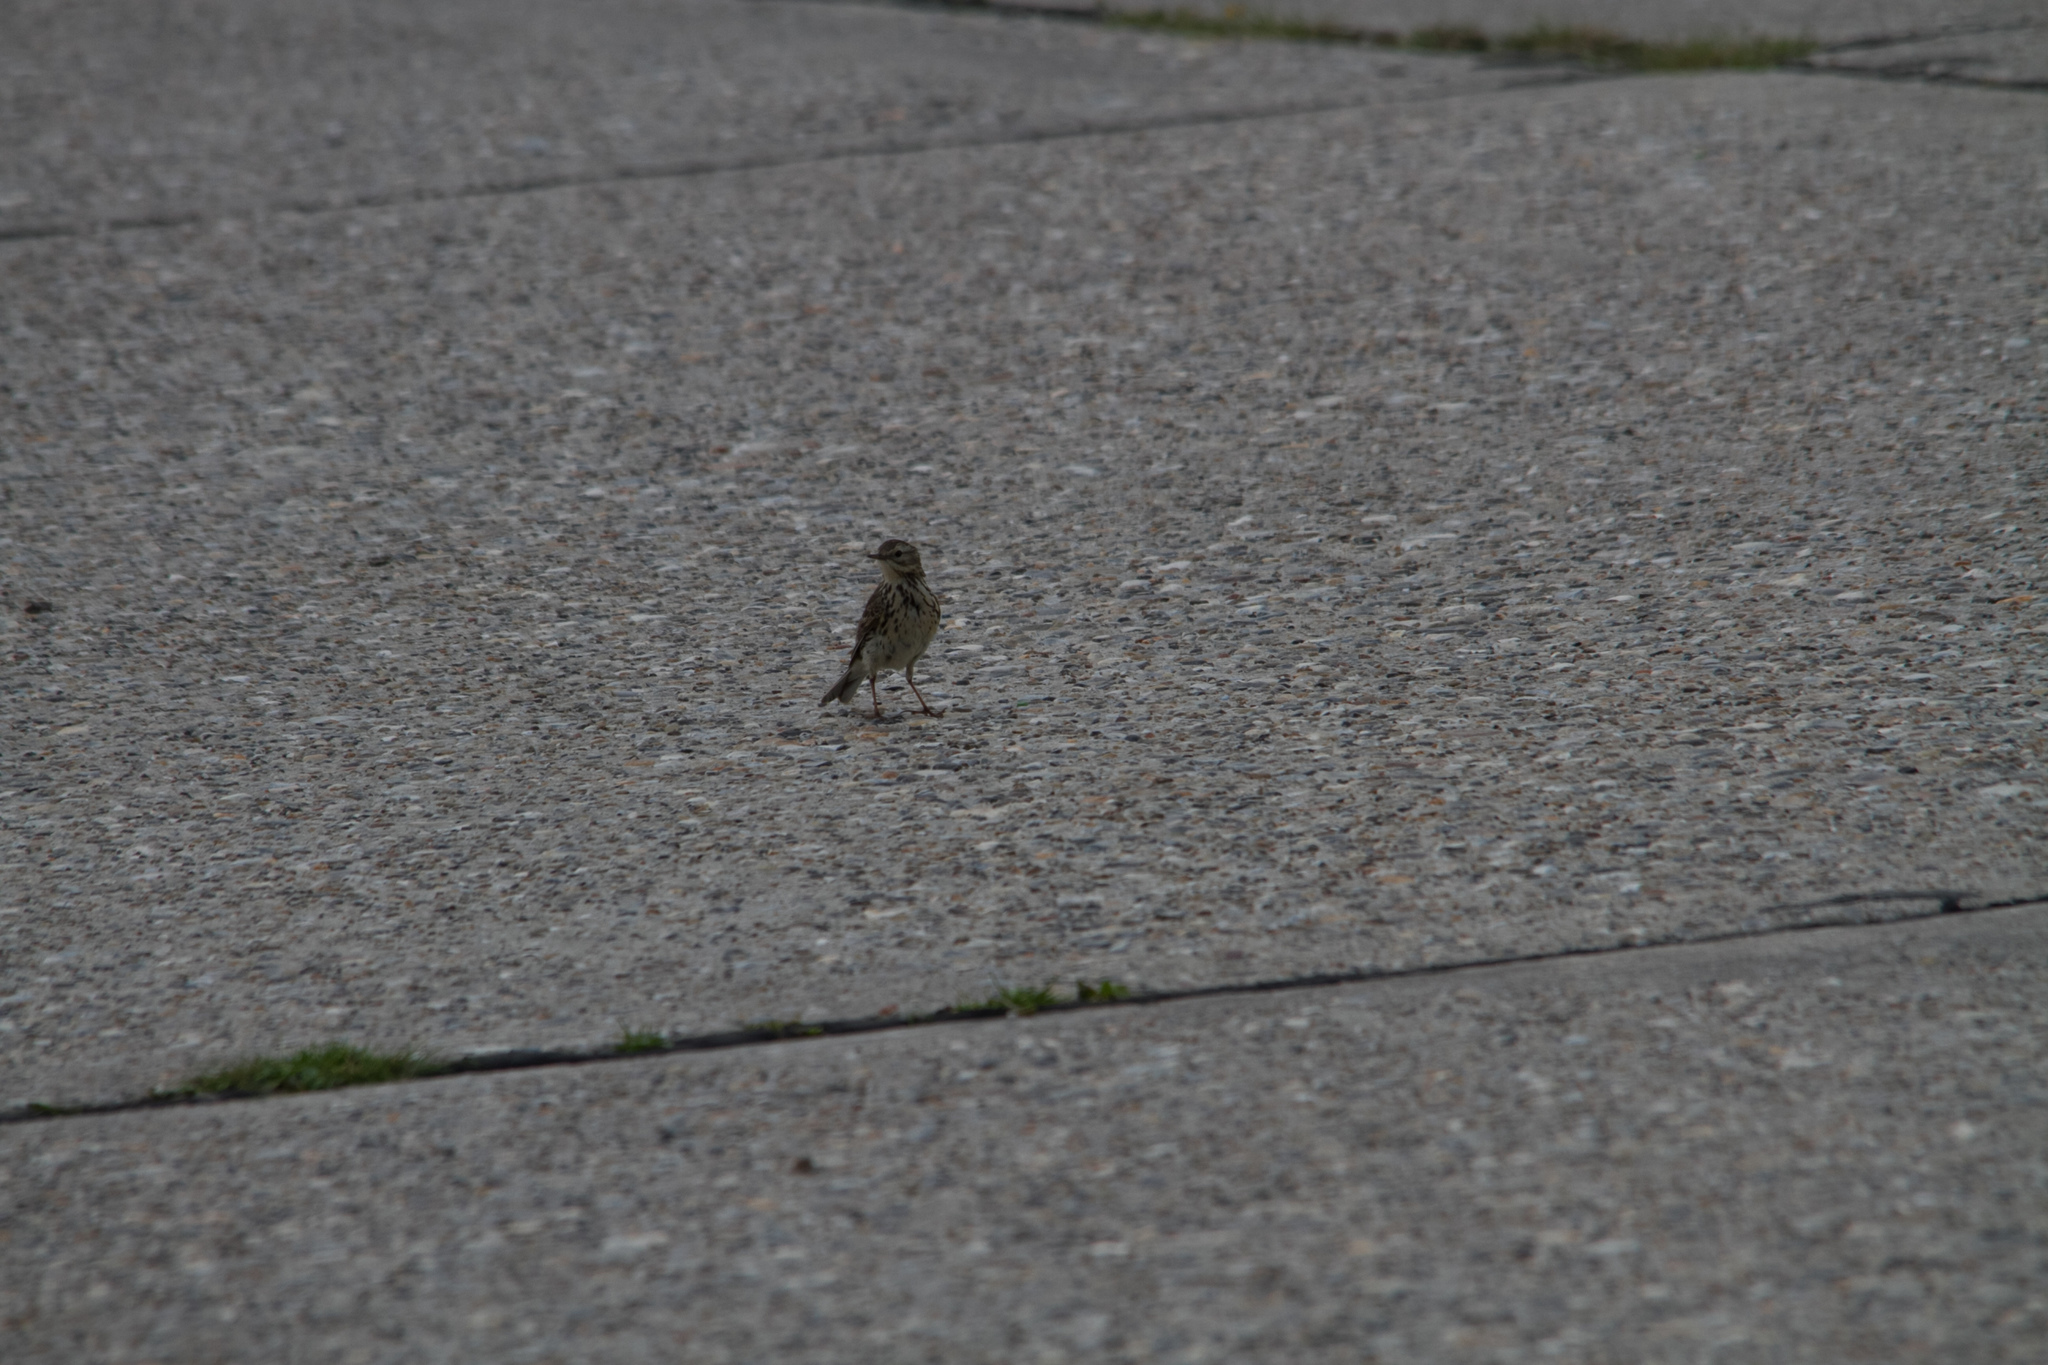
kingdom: Animalia
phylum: Chordata
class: Aves
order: Passeriformes
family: Motacillidae
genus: Anthus
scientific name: Anthus pratensis
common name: Meadow pipit
